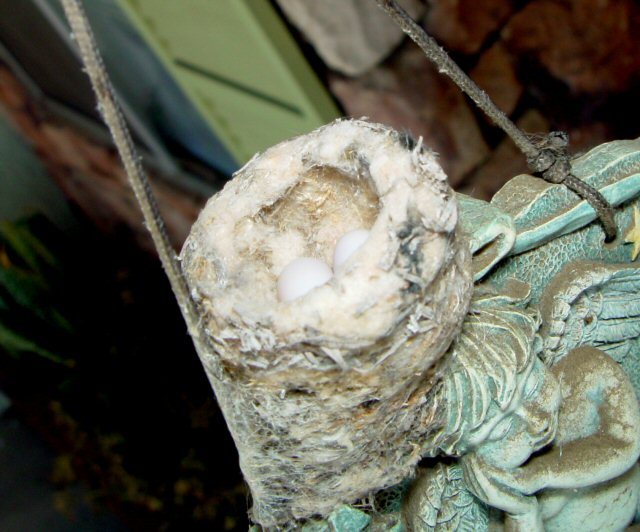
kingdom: Animalia
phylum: Chordata
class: Aves
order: Apodiformes
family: Trochilidae
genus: Calypte
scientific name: Calypte anna
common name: Anna's hummingbird
